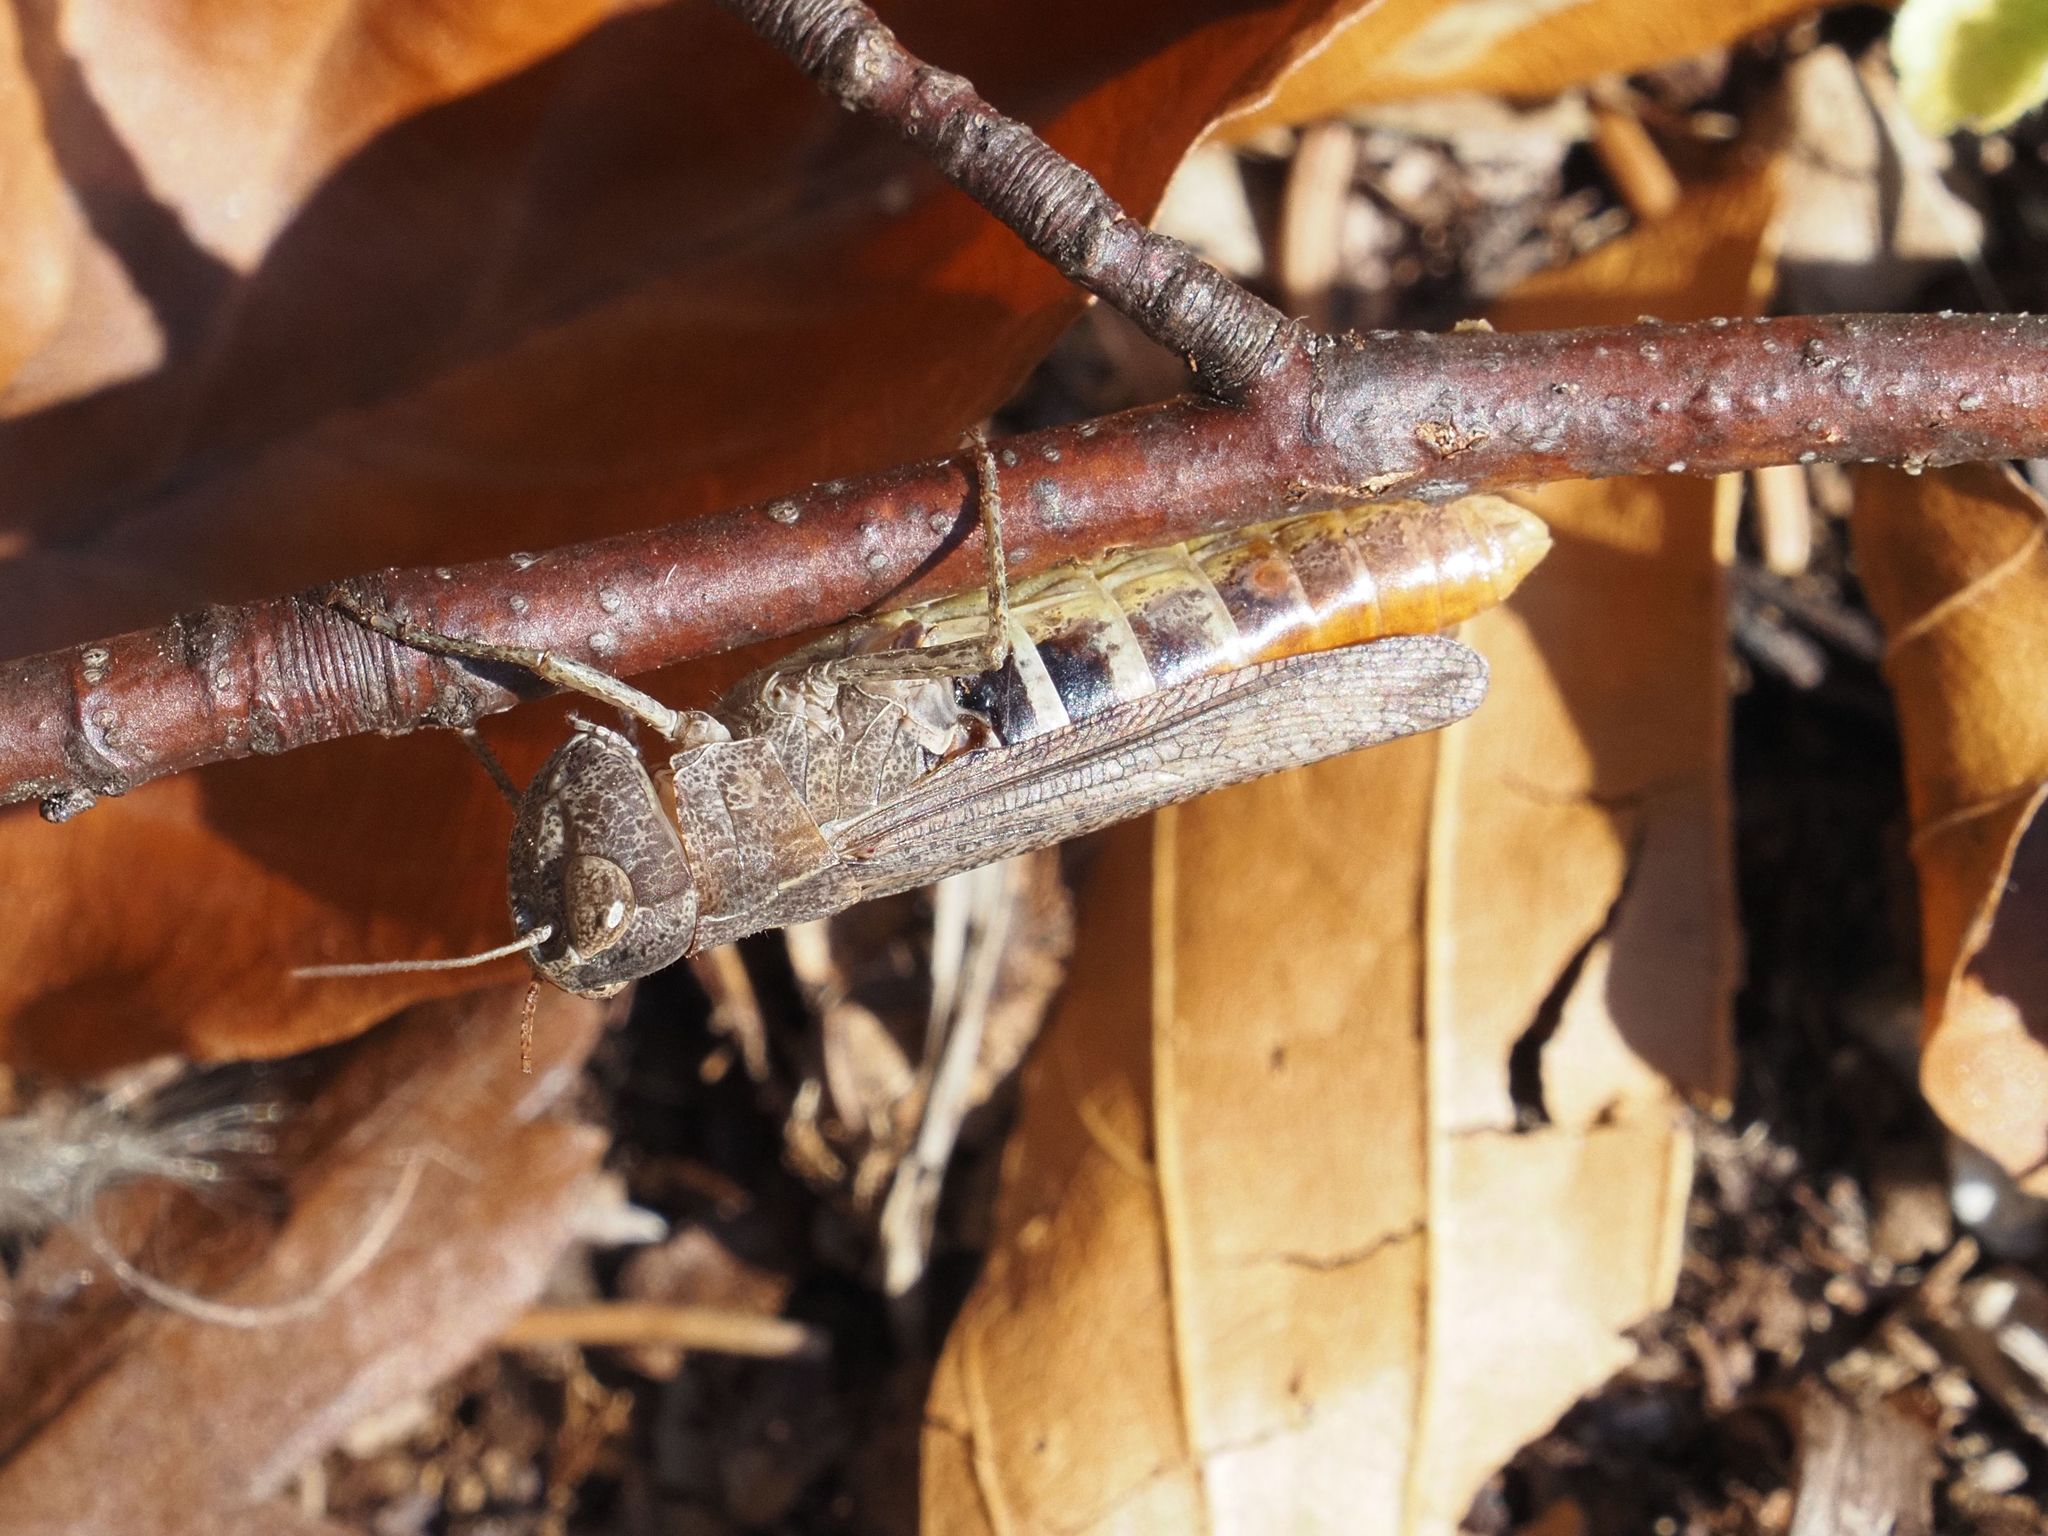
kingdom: Animalia
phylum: Arthropoda
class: Insecta
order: Orthoptera
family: Acrididae
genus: Chorthippus
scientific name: Chorthippus vagans
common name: Heath grasshopper
